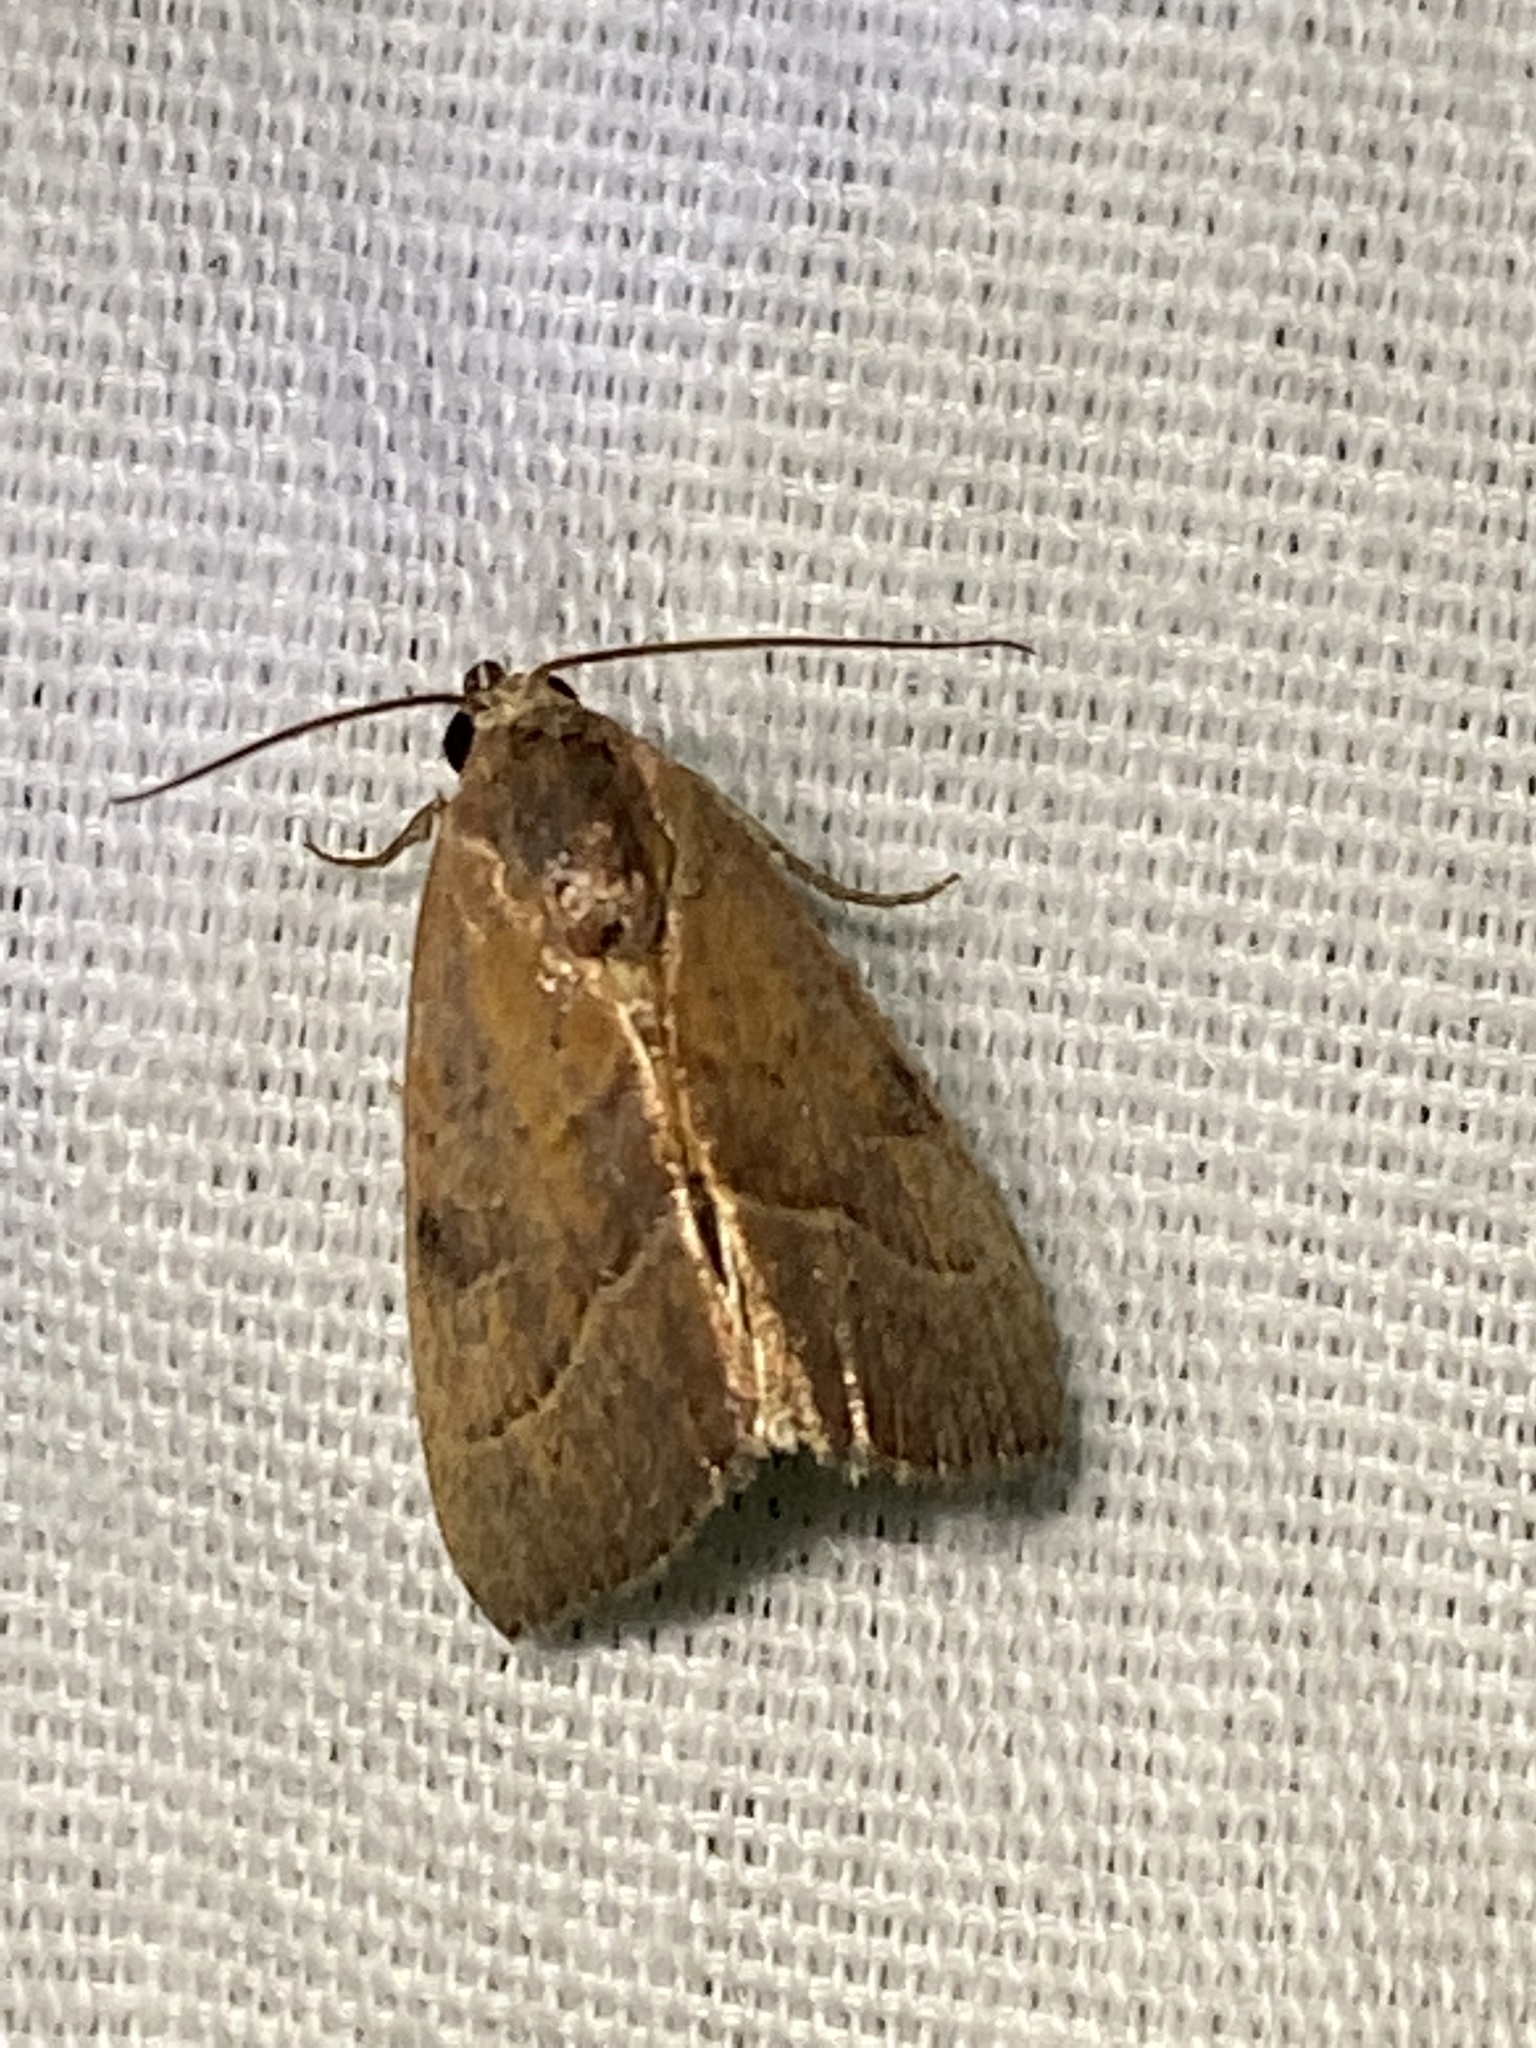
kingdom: Animalia
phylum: Arthropoda
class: Insecta
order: Lepidoptera
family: Noctuidae
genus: Galgula
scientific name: Galgula partita
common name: Wedgeling
